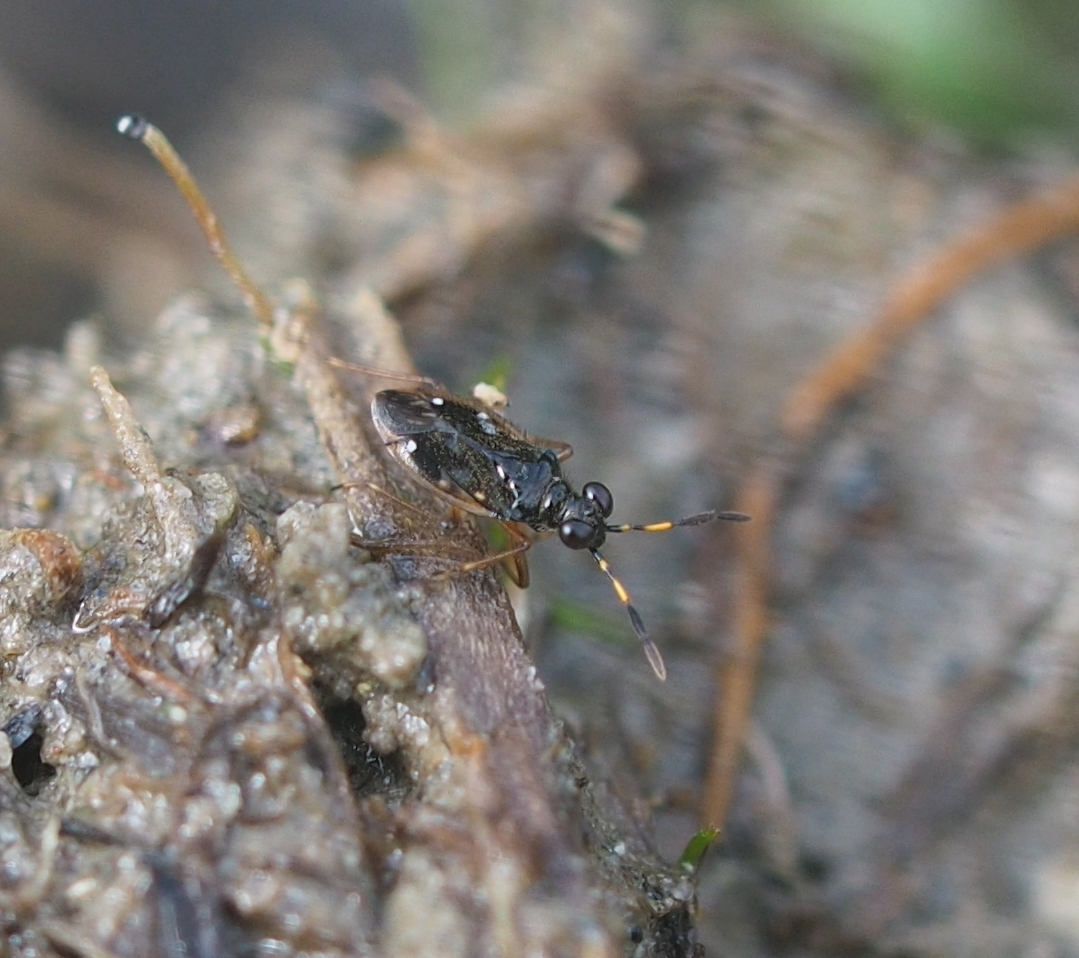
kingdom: Animalia
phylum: Arthropoda
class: Insecta
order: Hemiptera
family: Saldidae
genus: Chartoscirta
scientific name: Chartoscirta cocksii
